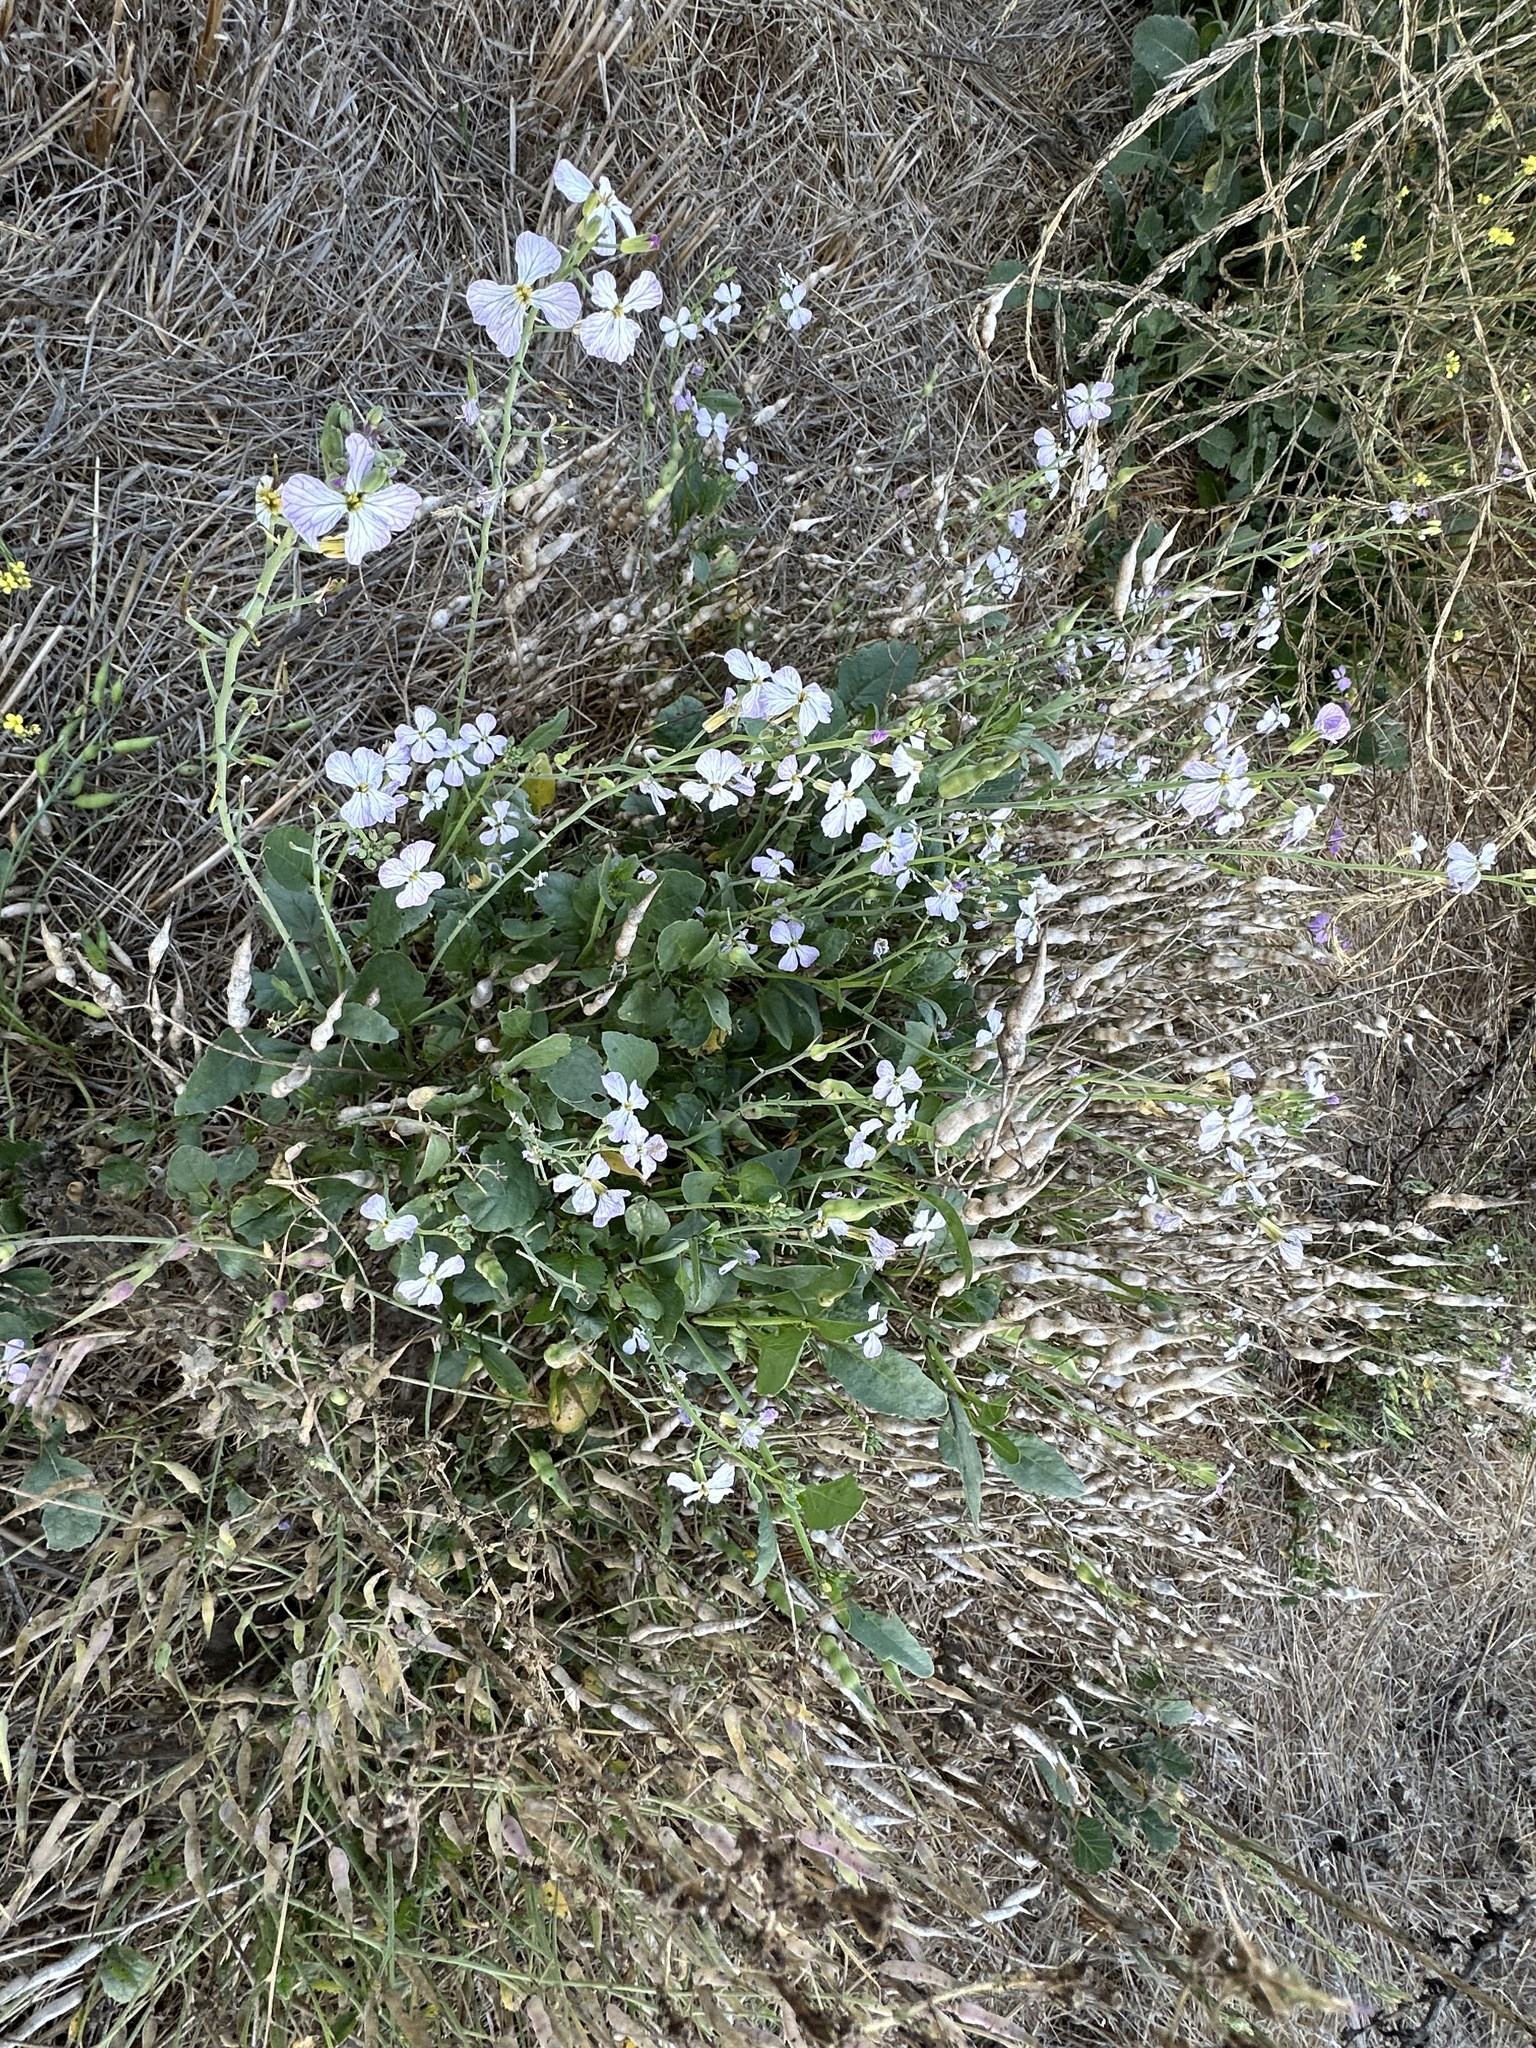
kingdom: Plantae
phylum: Tracheophyta
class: Magnoliopsida
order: Brassicales
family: Brassicaceae
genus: Raphanus
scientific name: Raphanus sativus
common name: Cultivated radish
